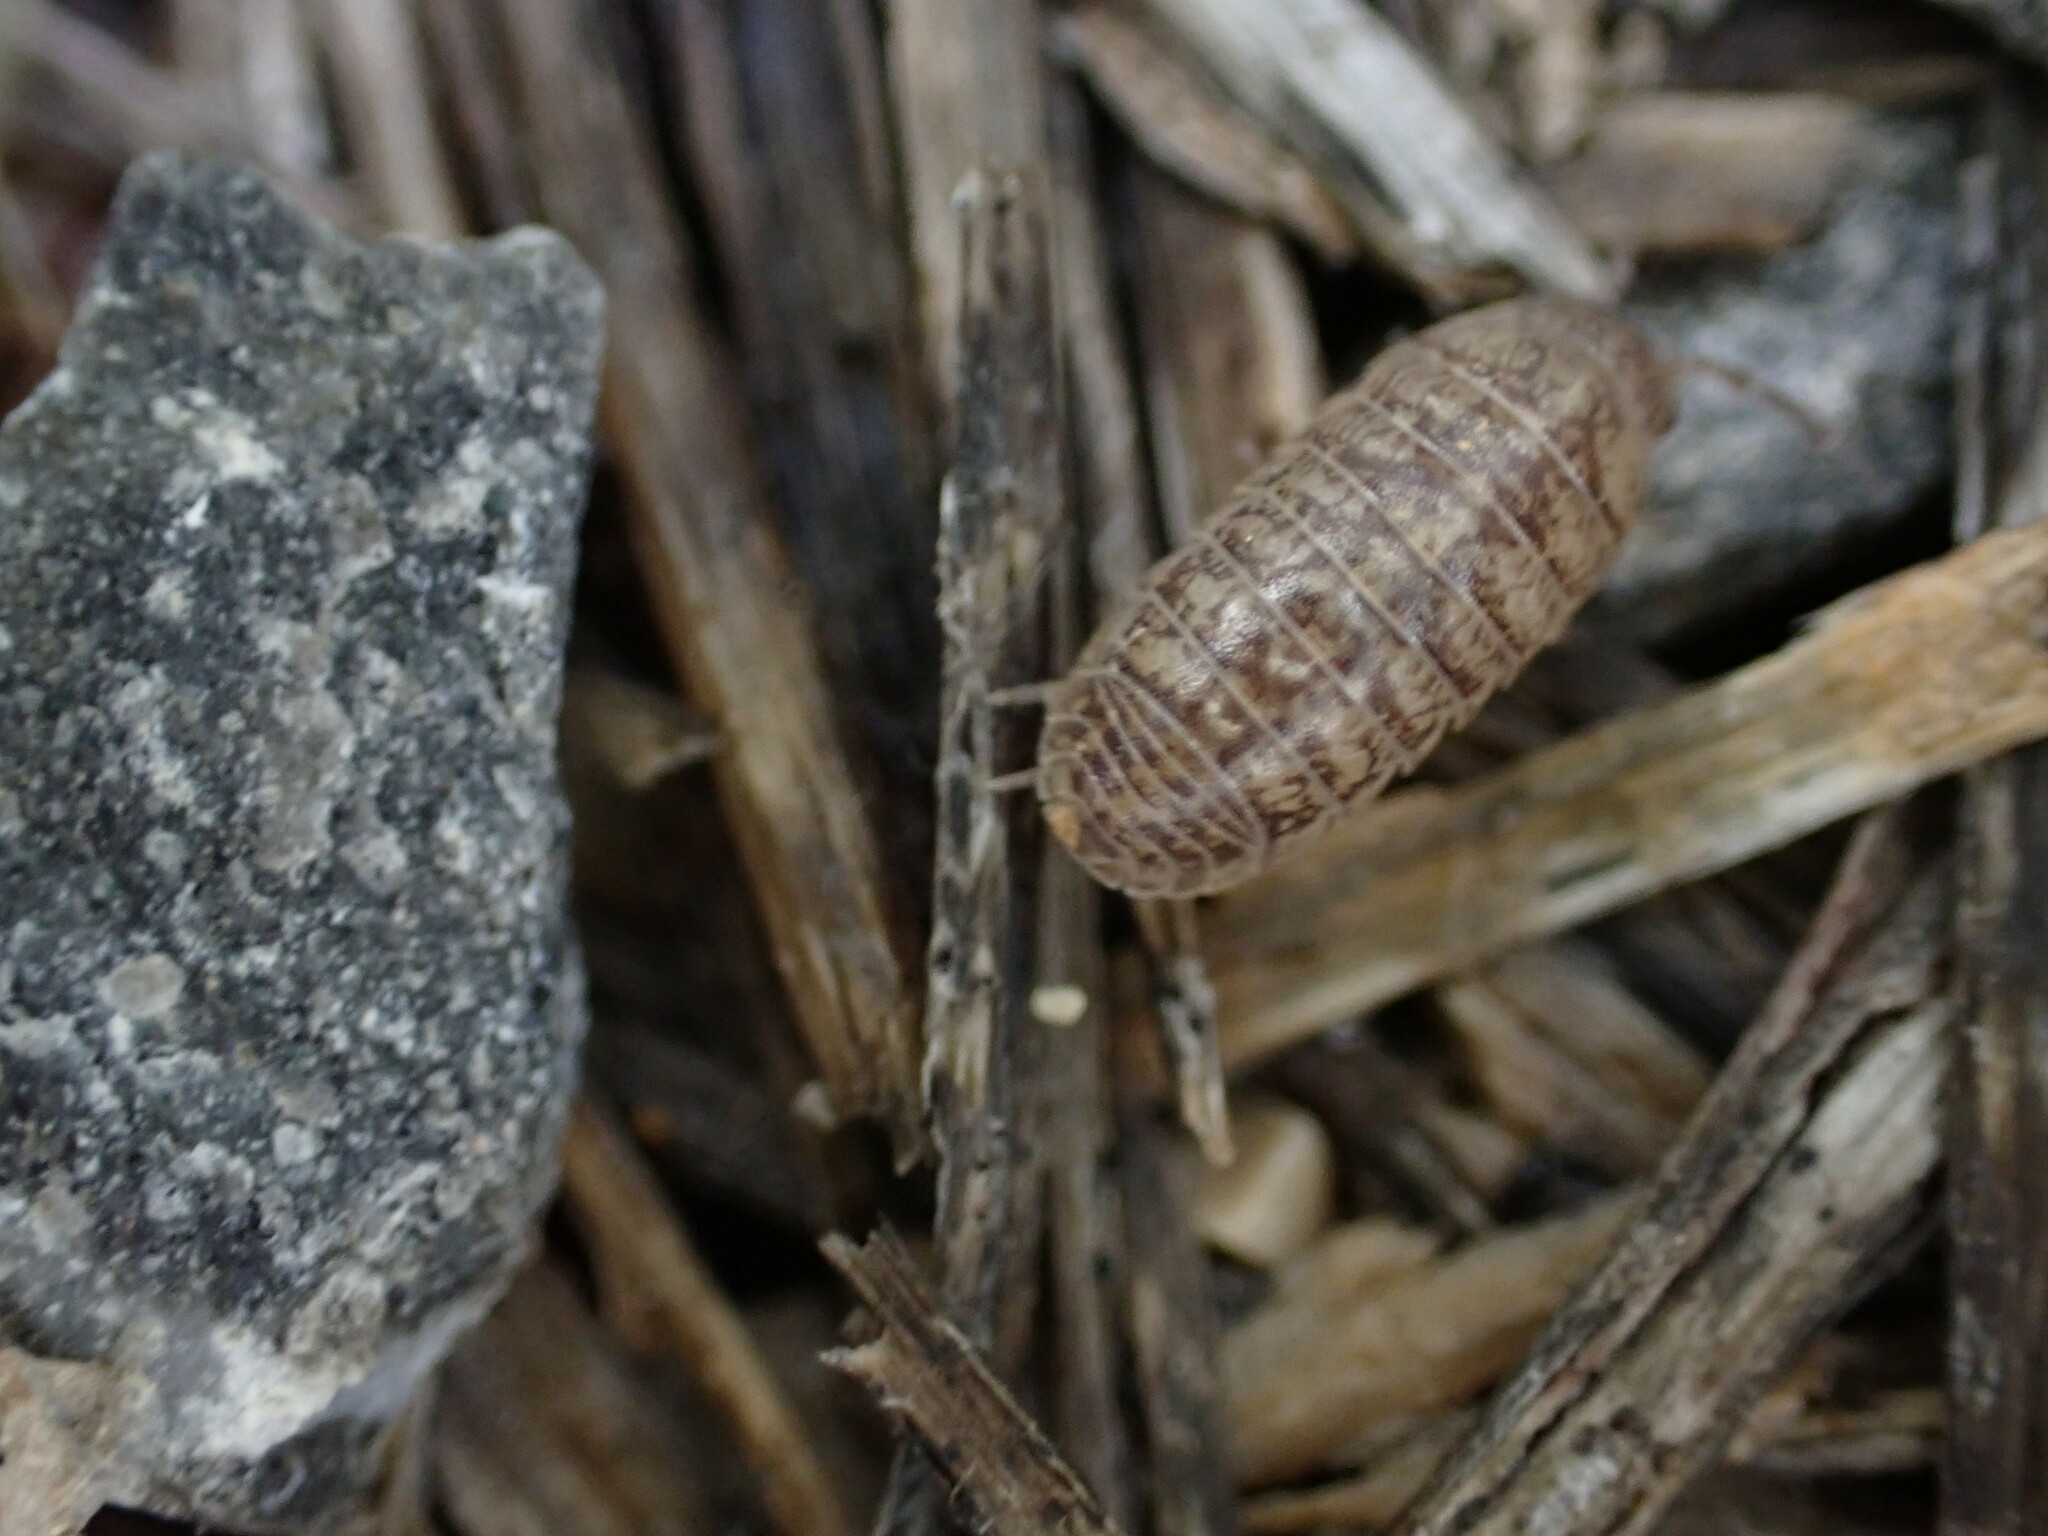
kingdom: Animalia
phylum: Arthropoda
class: Malacostraca
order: Isopoda
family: Armadillidiidae
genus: Armadillidium
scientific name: Armadillidium arcangelii
